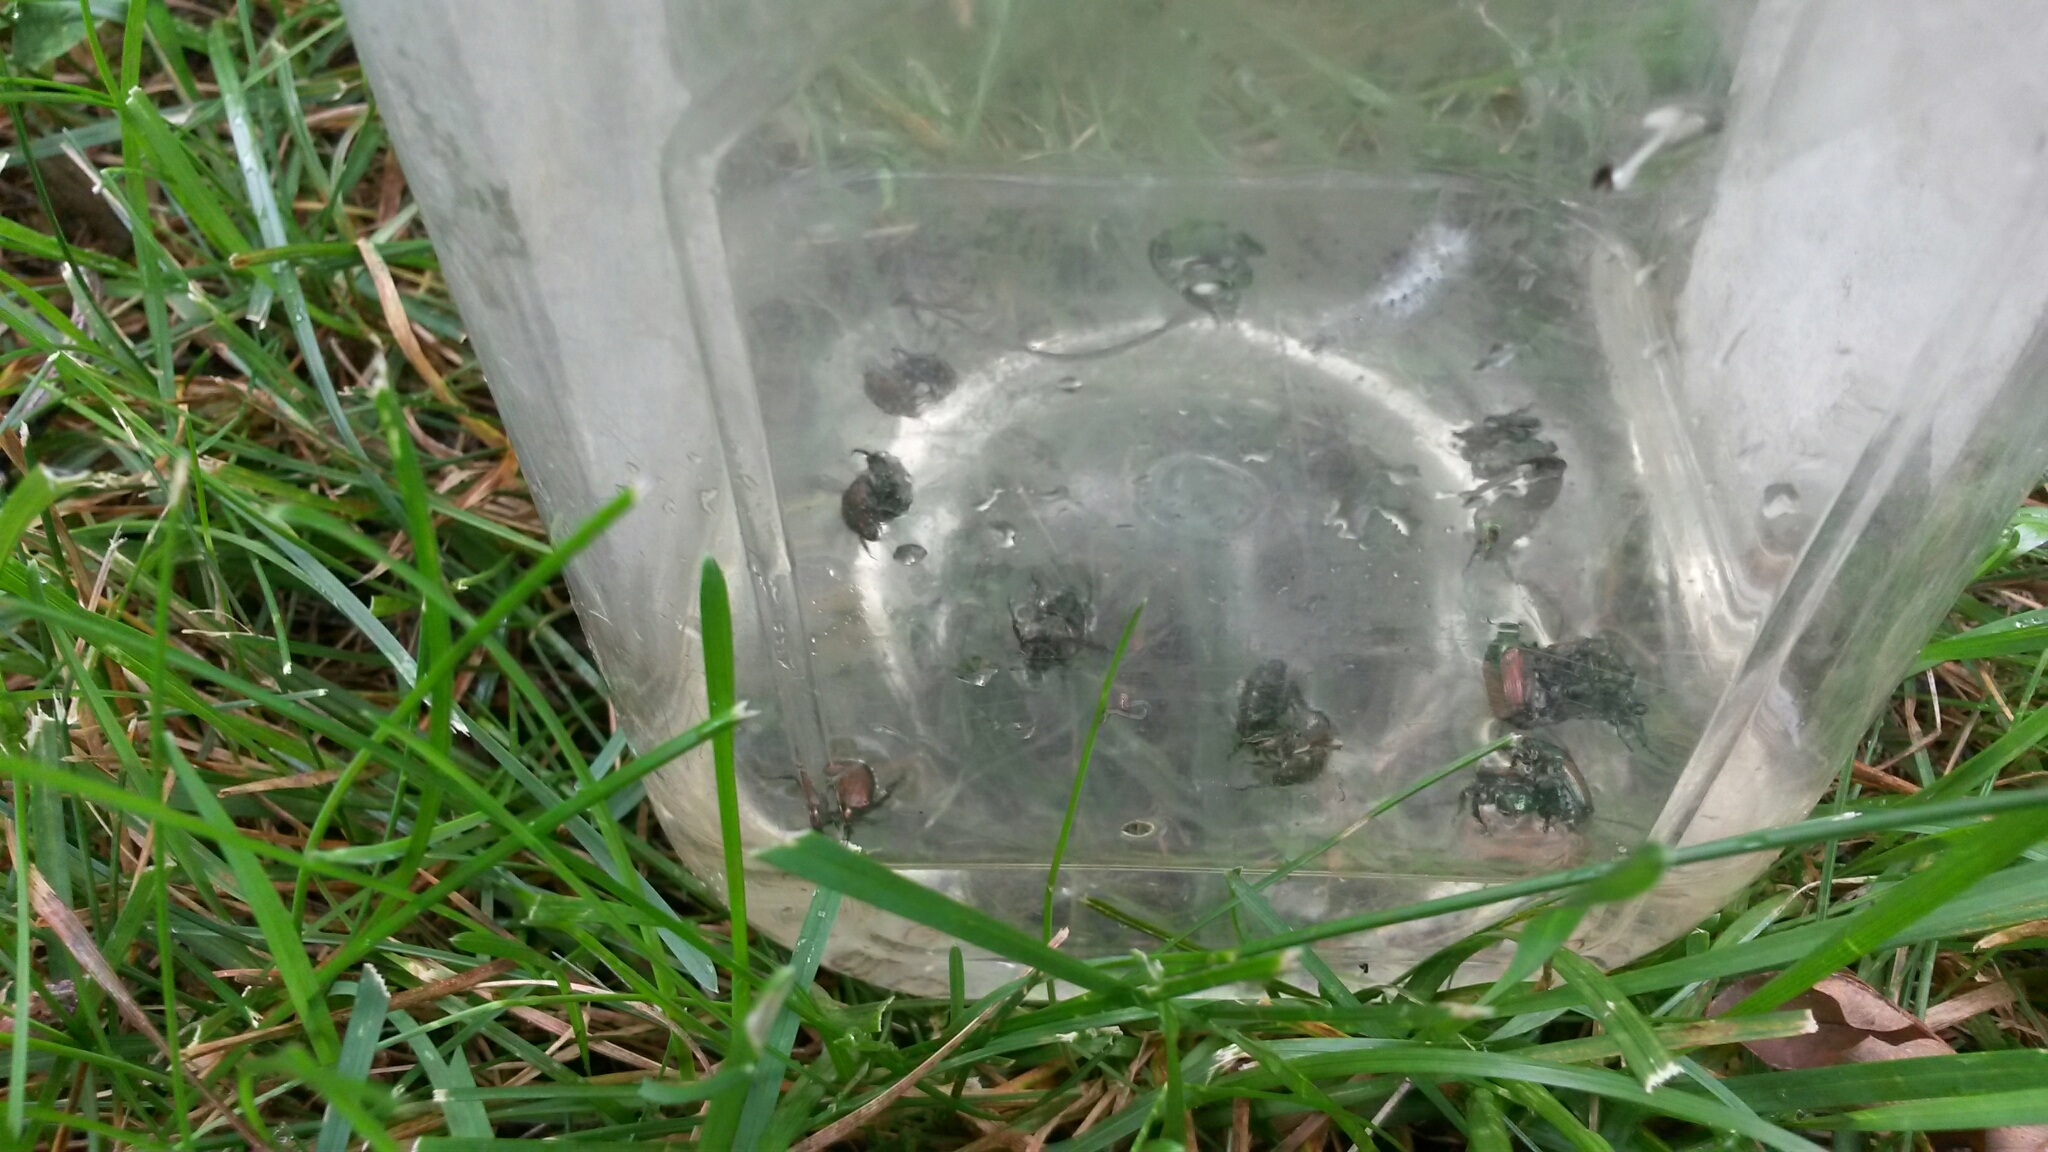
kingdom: Animalia
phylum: Arthropoda
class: Insecta
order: Coleoptera
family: Scarabaeidae
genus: Popillia
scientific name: Popillia japonica
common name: Japanese beetle
